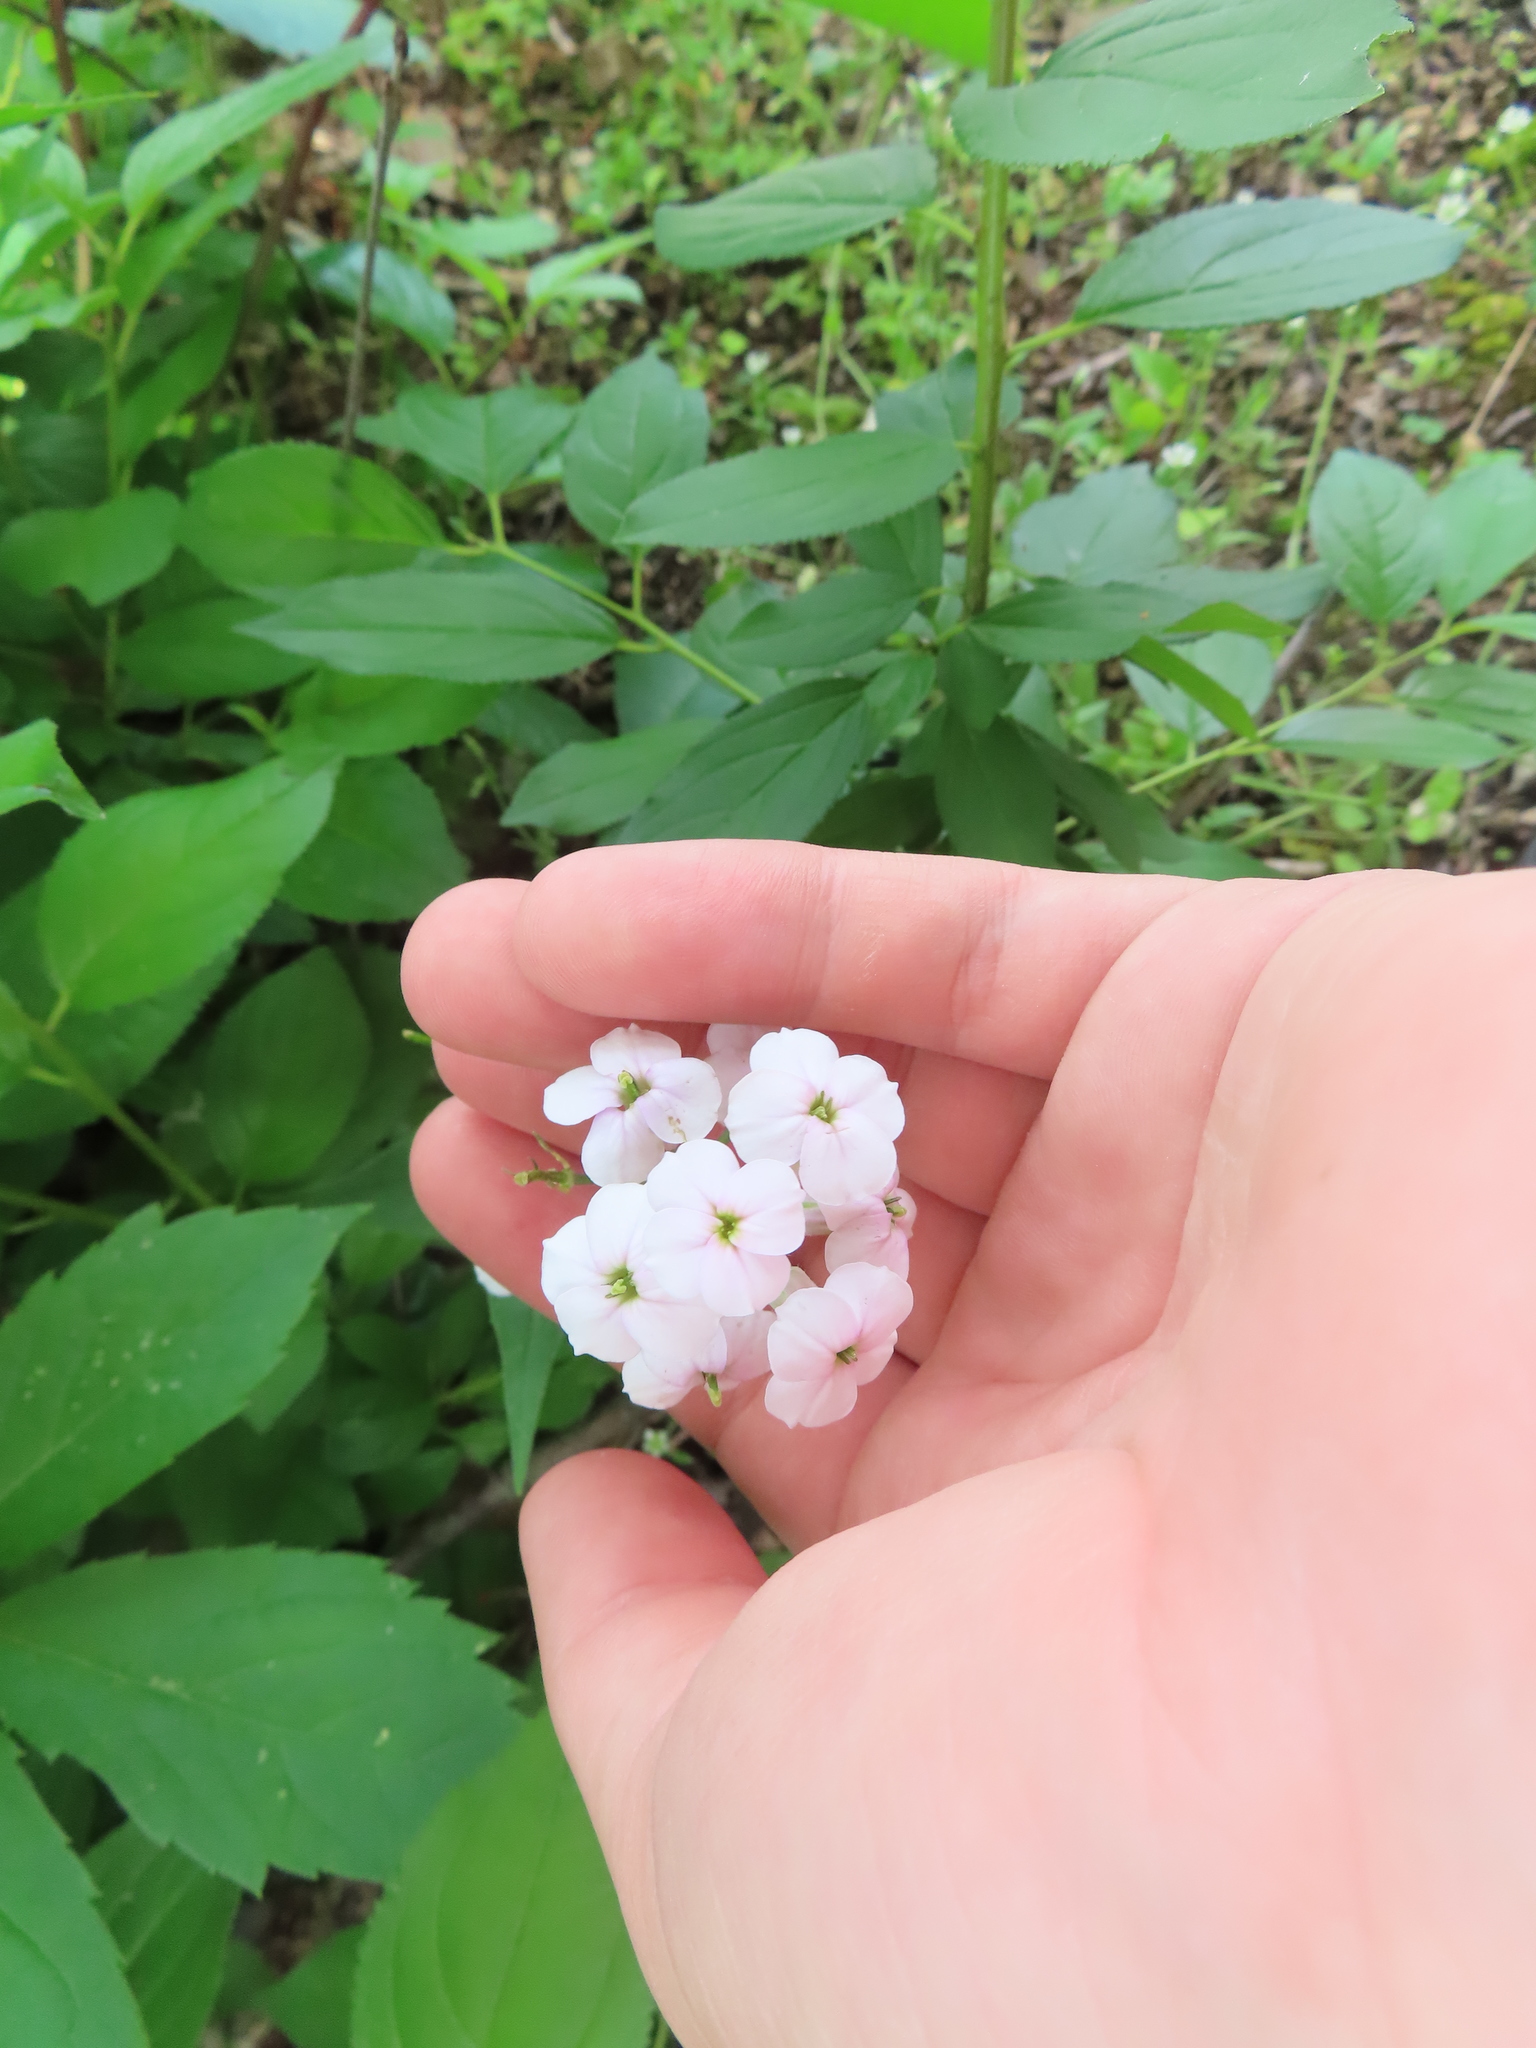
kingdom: Plantae
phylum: Tracheophyta
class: Magnoliopsida
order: Brassicales
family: Brassicaceae
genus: Hesperis
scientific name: Hesperis matronalis
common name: Dame's-violet
